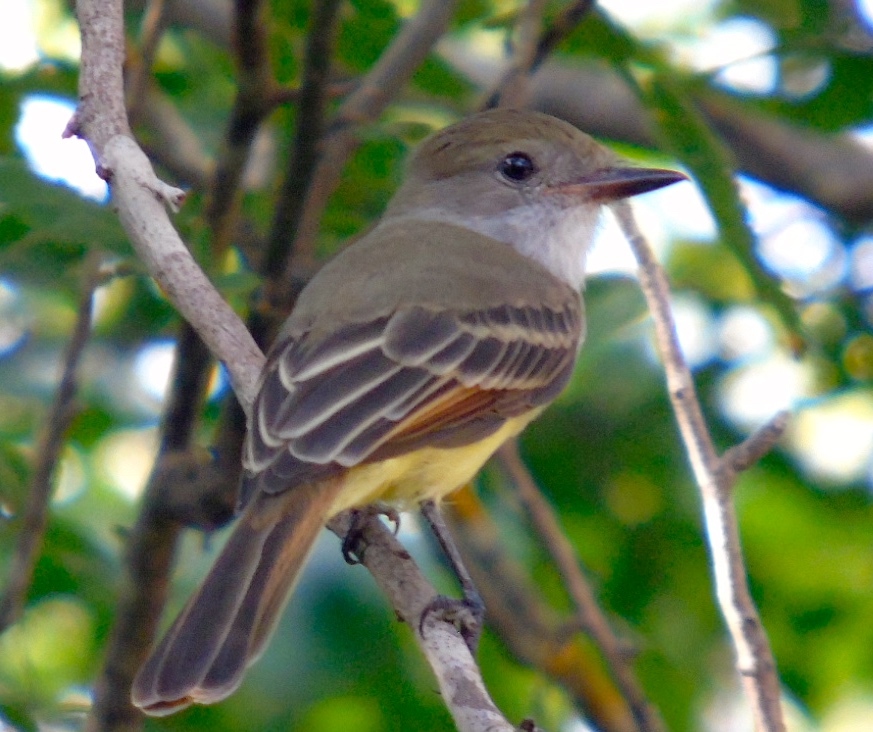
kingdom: Animalia
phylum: Chordata
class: Aves
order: Passeriformes
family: Tyrannidae
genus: Myiarchus
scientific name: Myiarchus
